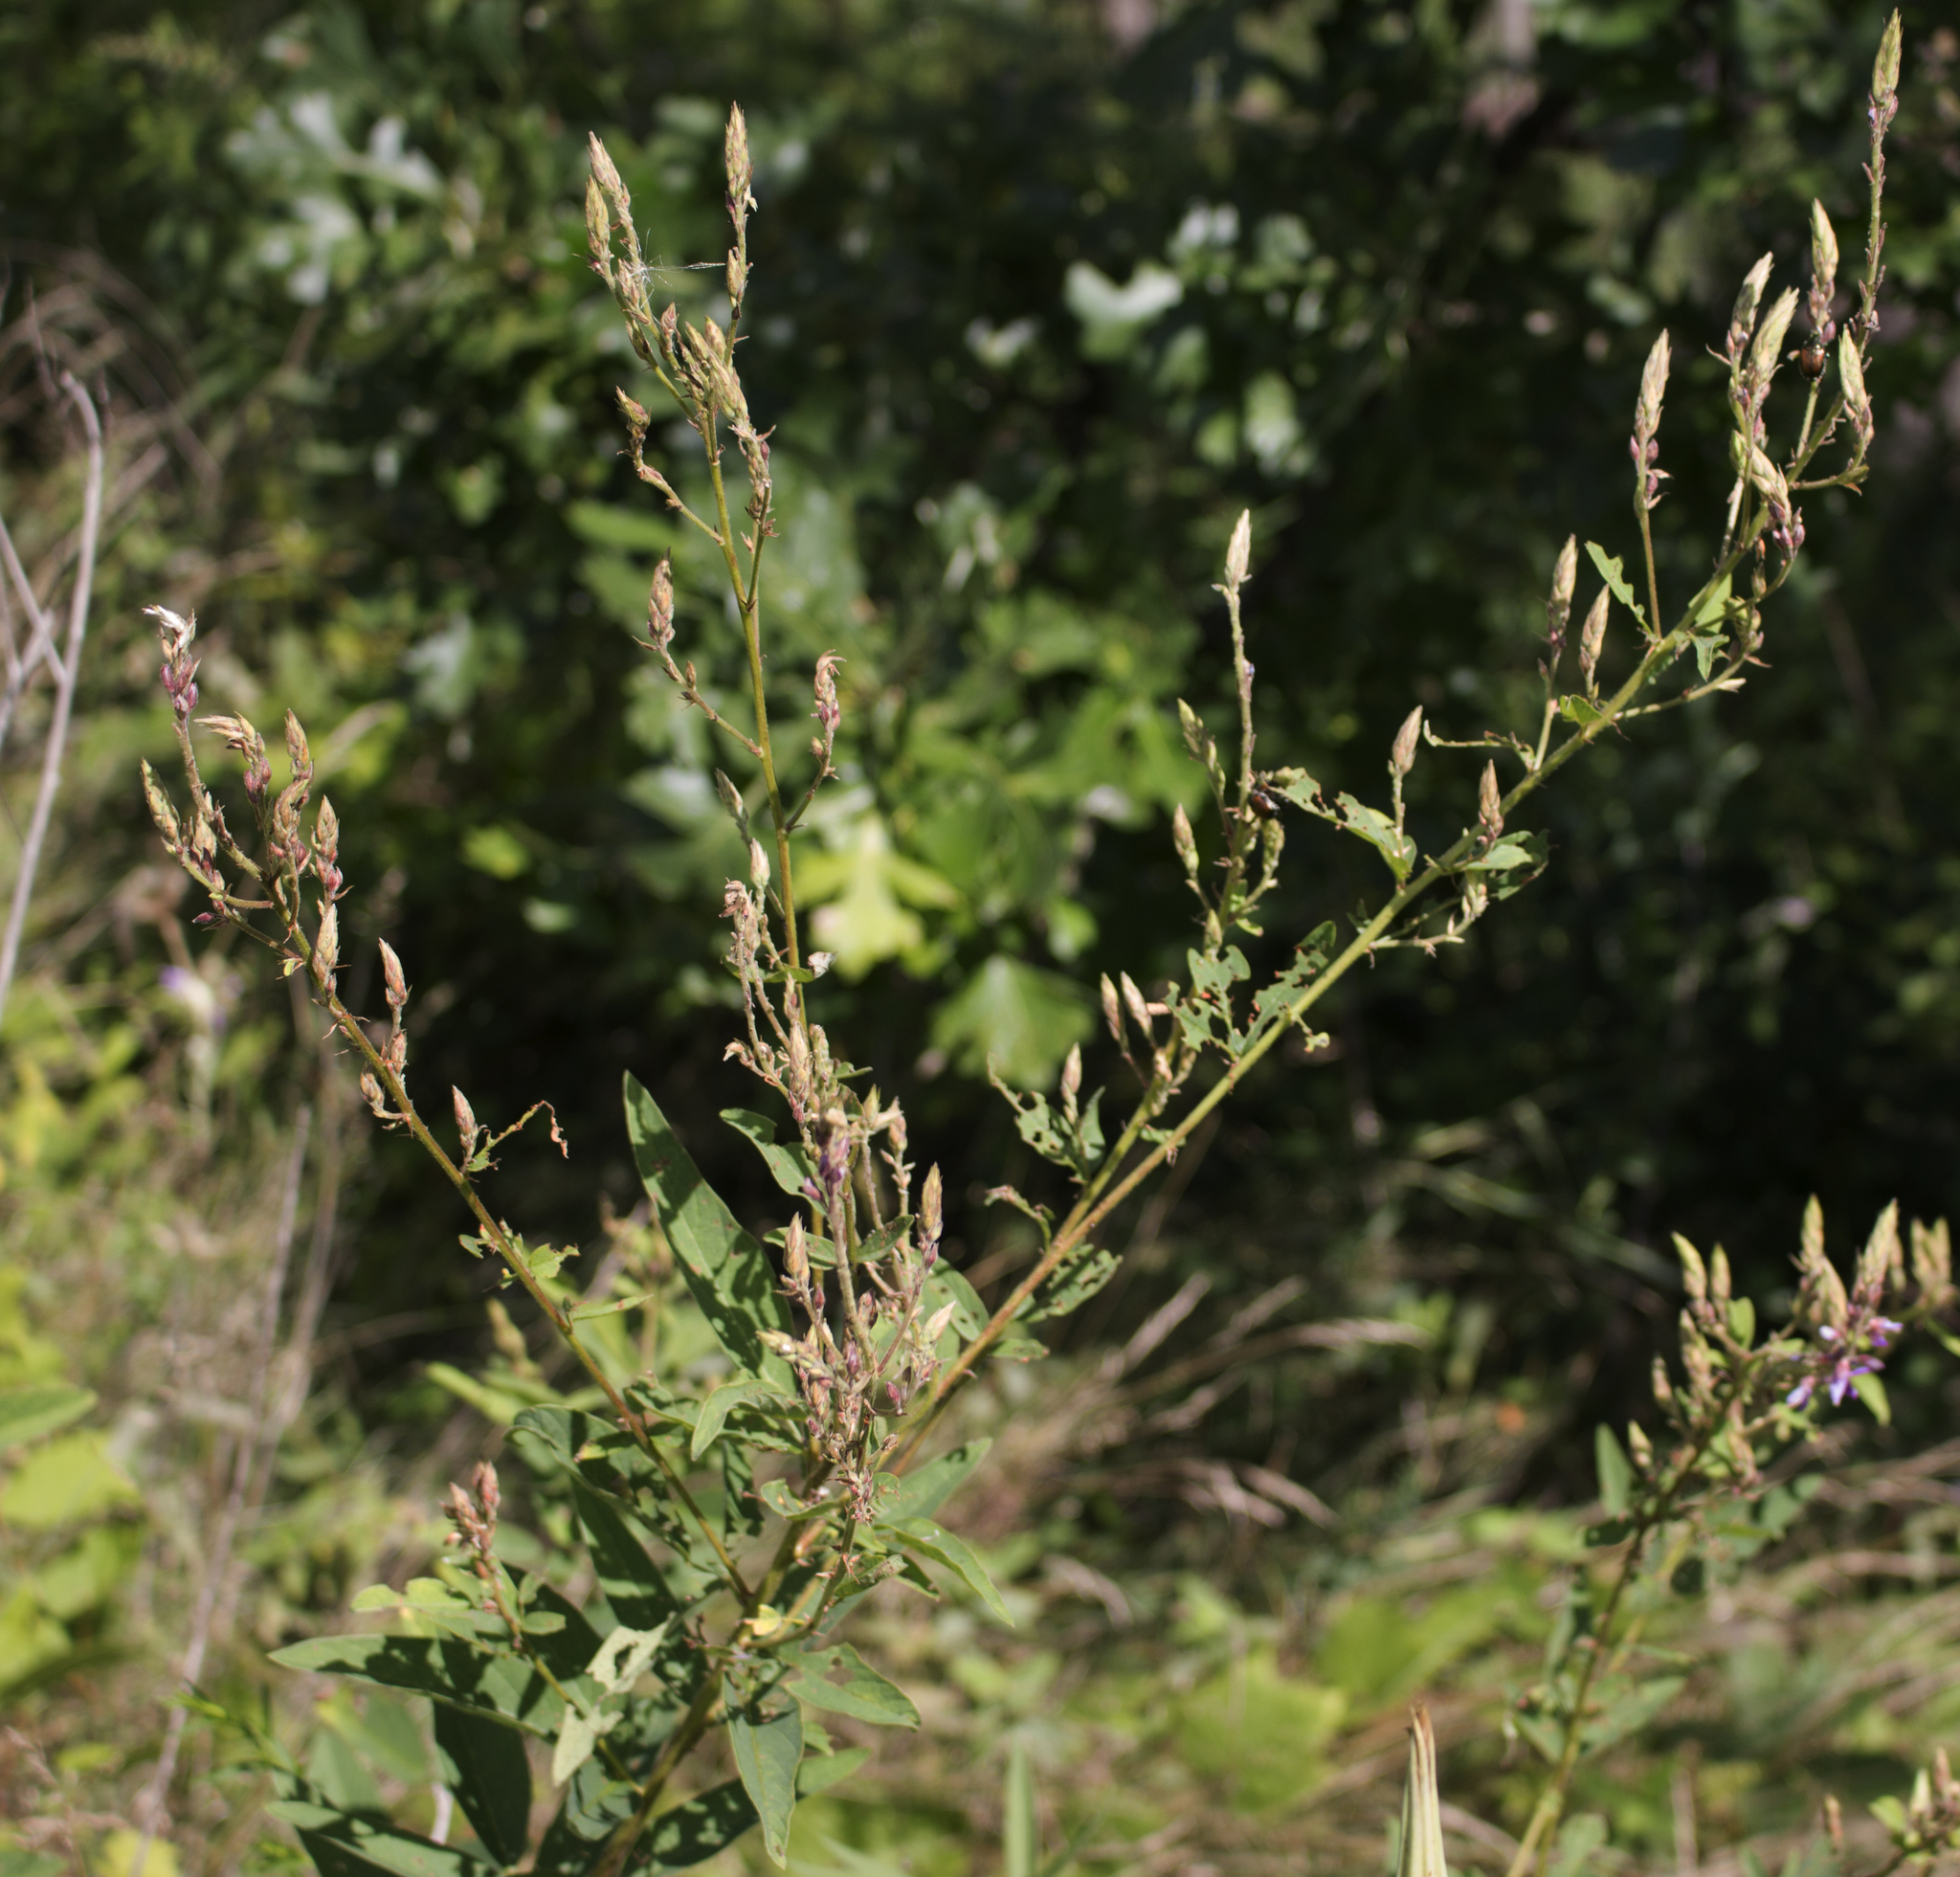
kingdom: Plantae
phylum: Tracheophyta
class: Magnoliopsida
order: Fabales
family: Fabaceae
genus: Desmodium
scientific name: Desmodium canadense
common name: Canada tick-trefoil
